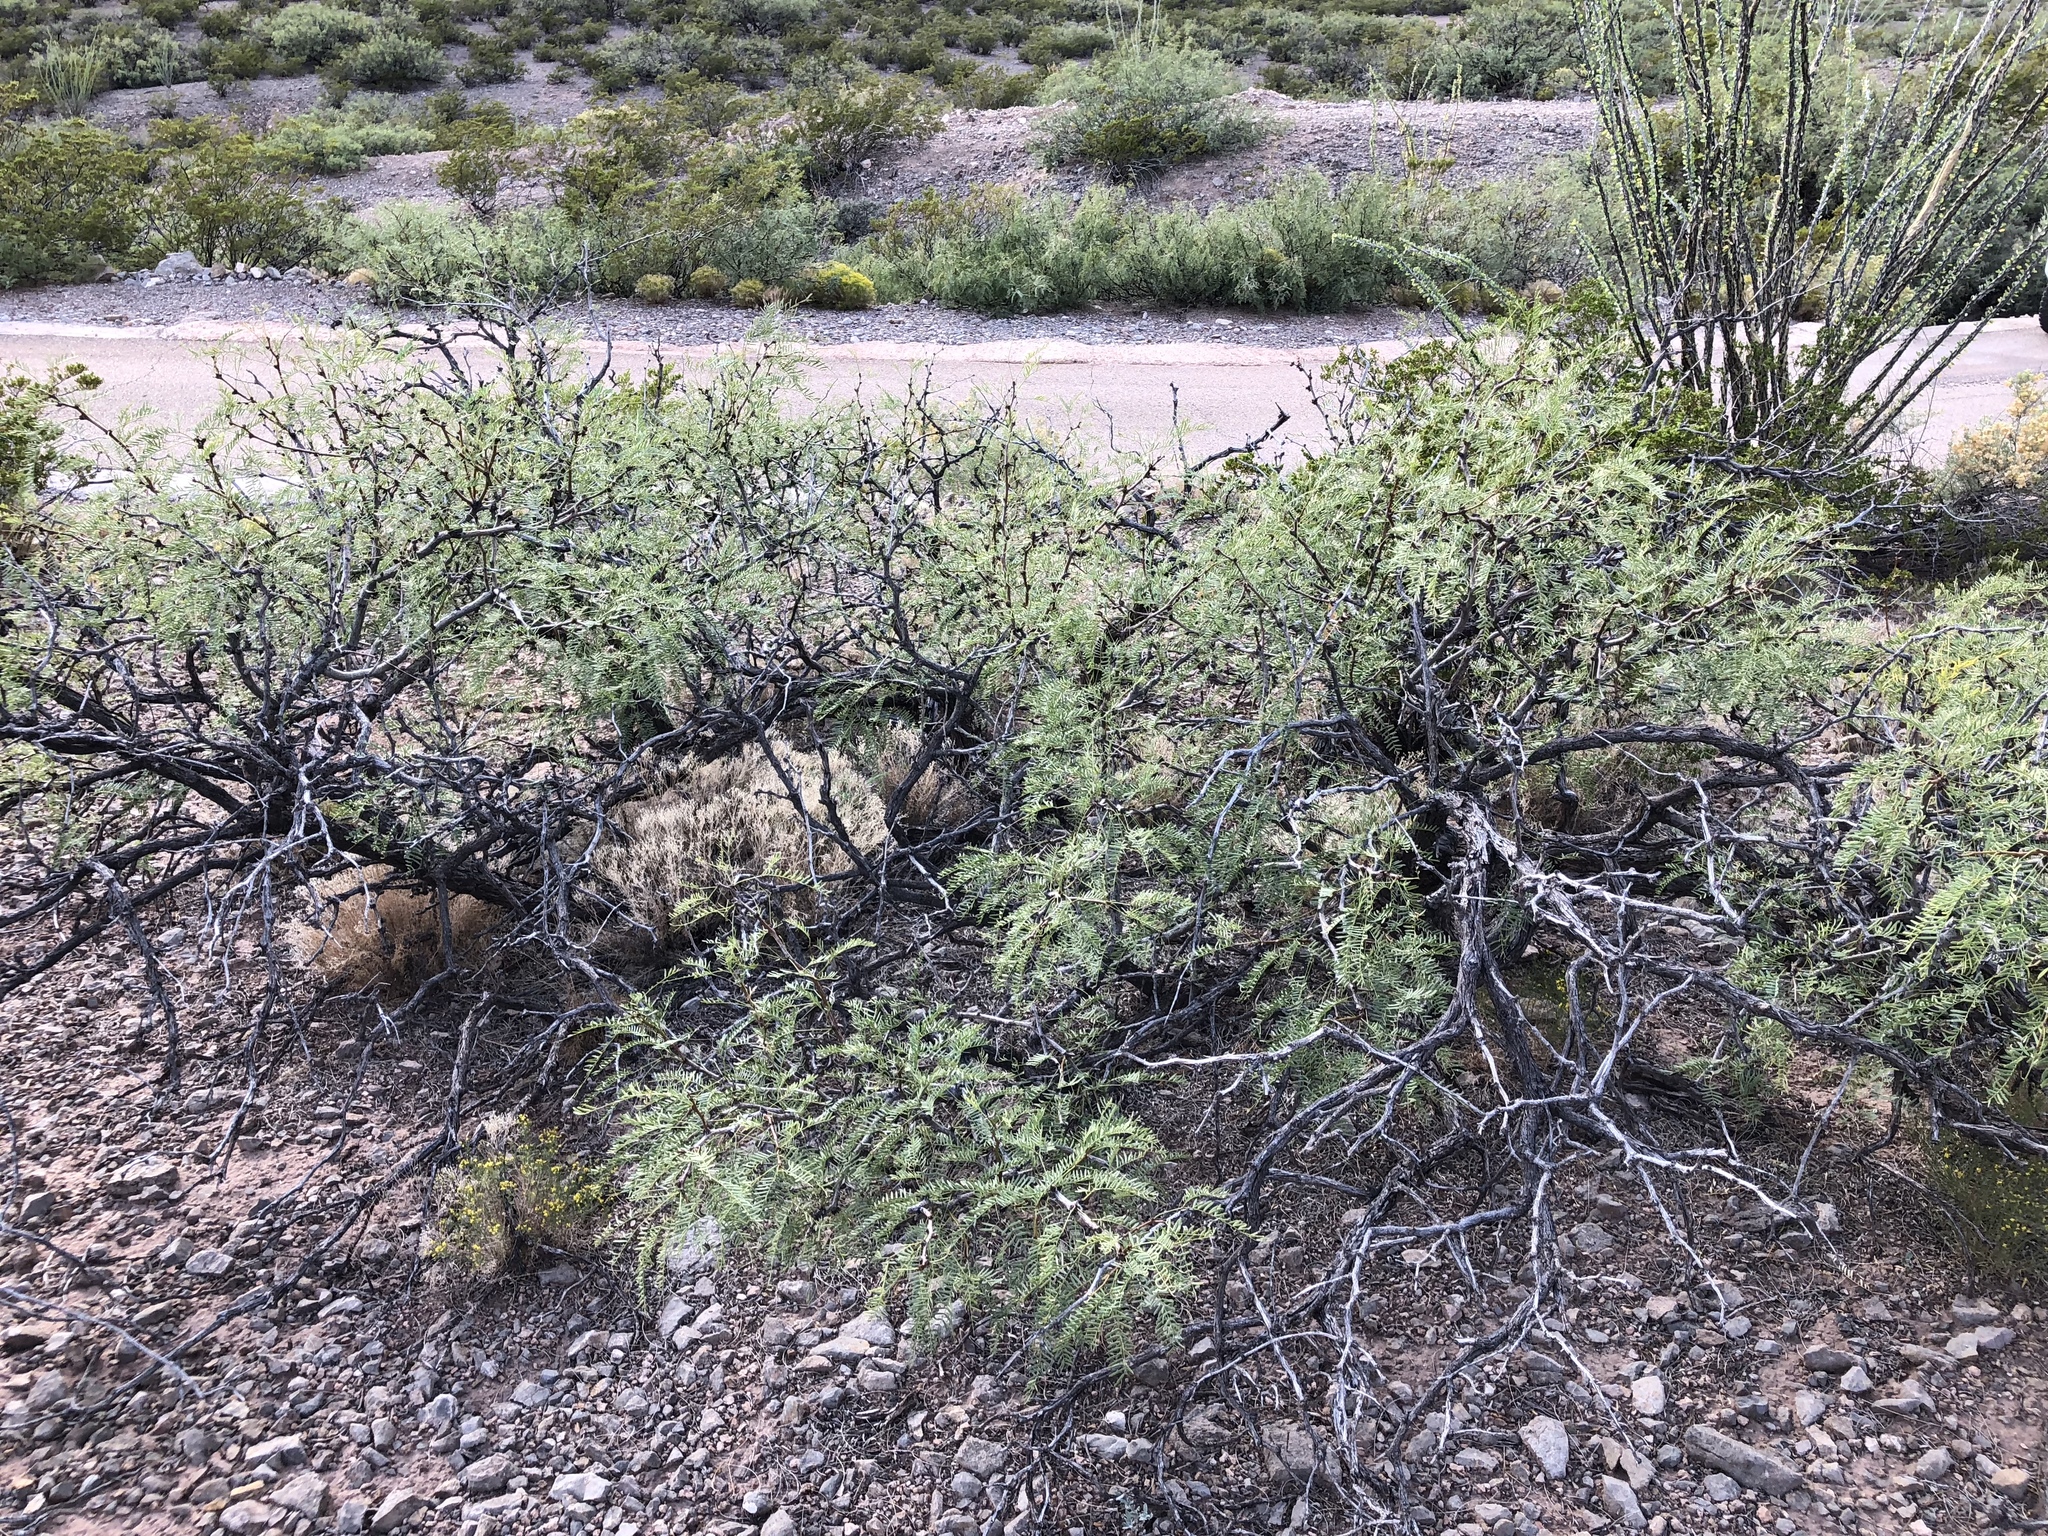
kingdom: Plantae
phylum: Tracheophyta
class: Magnoliopsida
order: Fabales
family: Fabaceae
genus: Prosopis
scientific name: Prosopis glandulosa
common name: Honey mesquite
